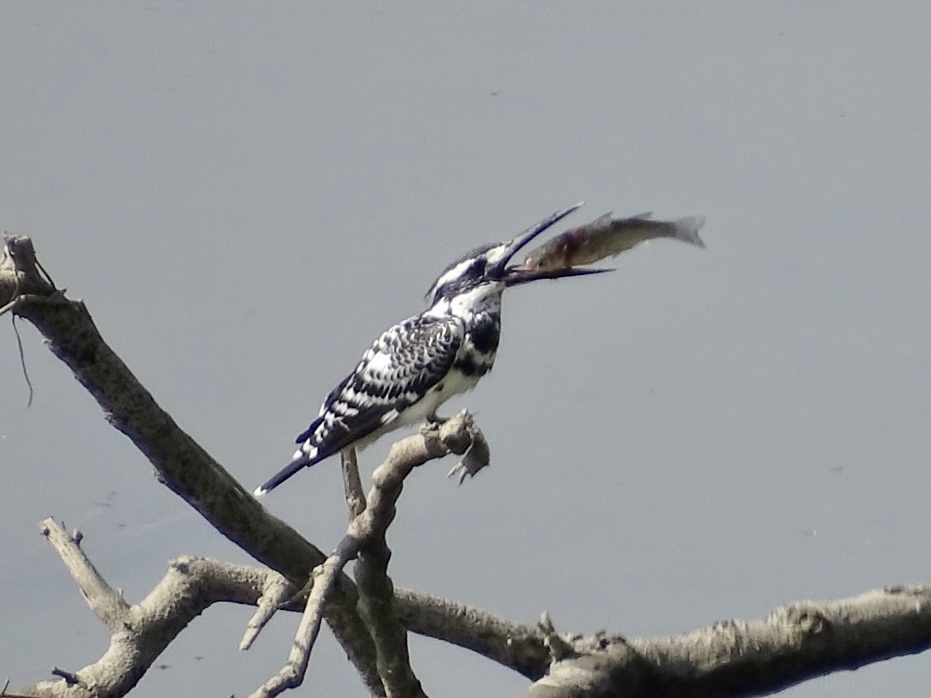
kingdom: Animalia
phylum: Chordata
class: Aves
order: Coraciiformes
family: Alcedinidae
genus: Ceryle
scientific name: Ceryle rudis
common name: Pied kingfisher
